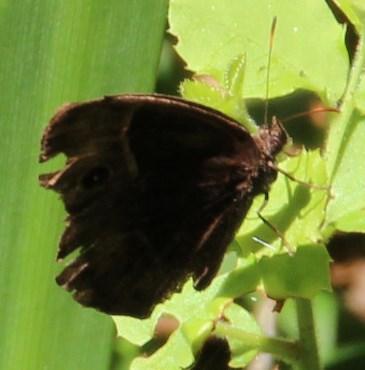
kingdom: Animalia
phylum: Arthropoda
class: Insecta
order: Lepidoptera
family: Nymphalidae
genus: Mycalesis
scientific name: Mycalesis rhacotis
